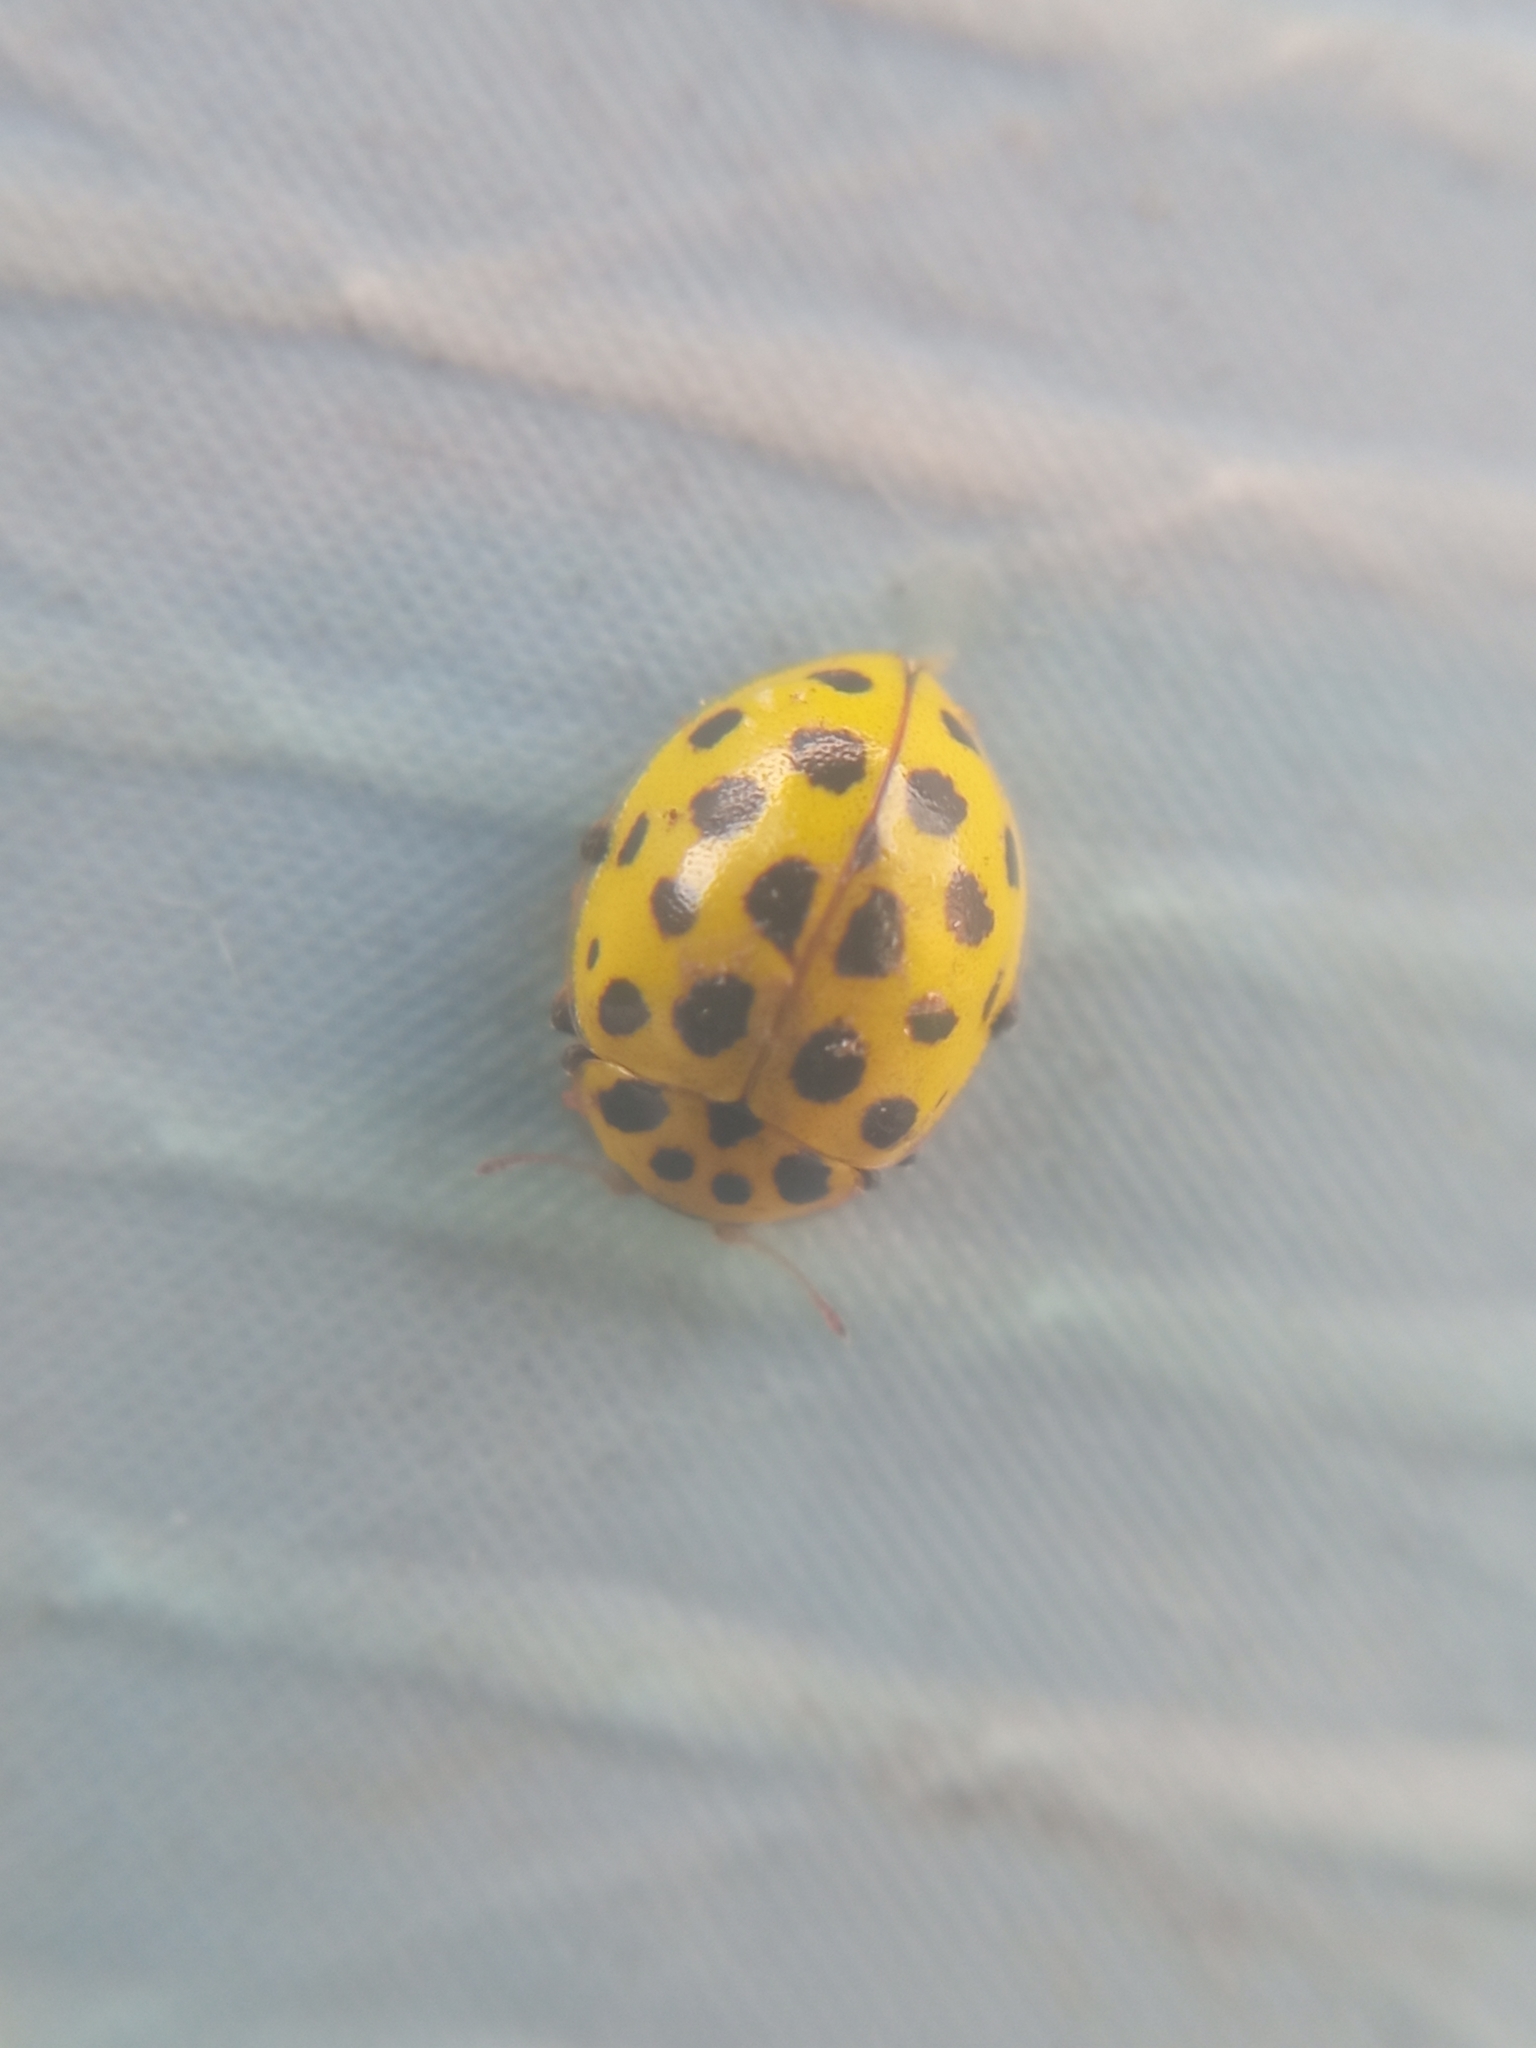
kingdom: Animalia
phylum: Arthropoda
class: Insecta
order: Coleoptera
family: Coccinellidae
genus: Psyllobora
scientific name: Psyllobora vigintiduopunctata
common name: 22-spot ladybird
